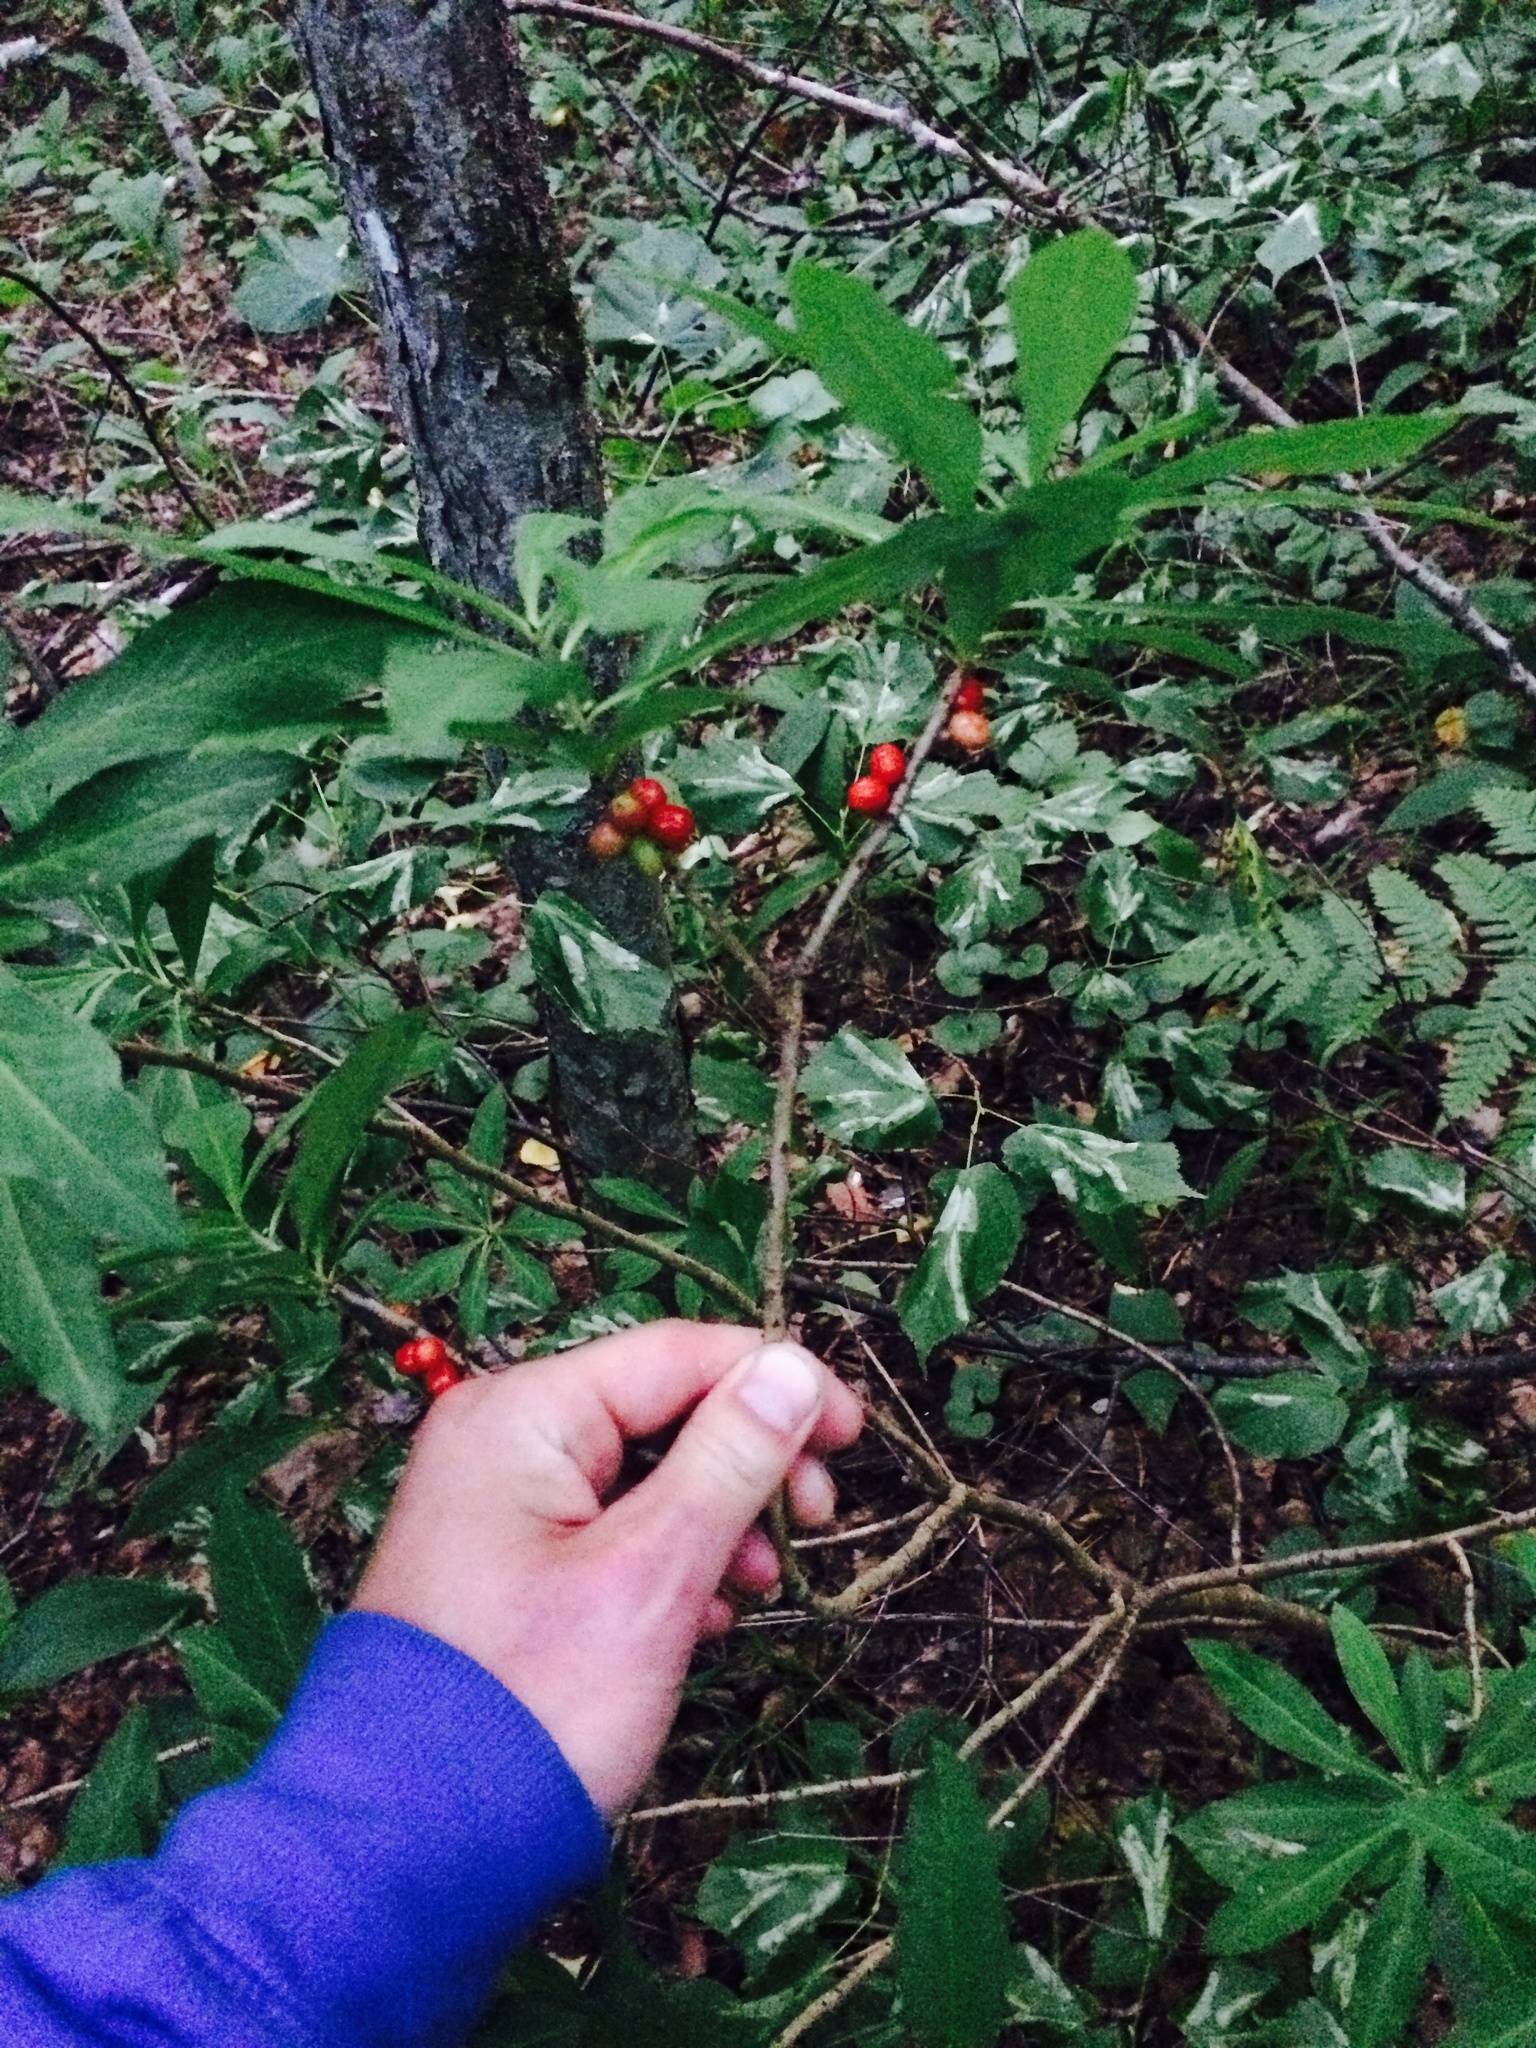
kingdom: Plantae
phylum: Tracheophyta
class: Magnoliopsida
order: Malvales
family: Thymelaeaceae
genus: Daphne
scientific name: Daphne mezereum
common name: Mezereon
